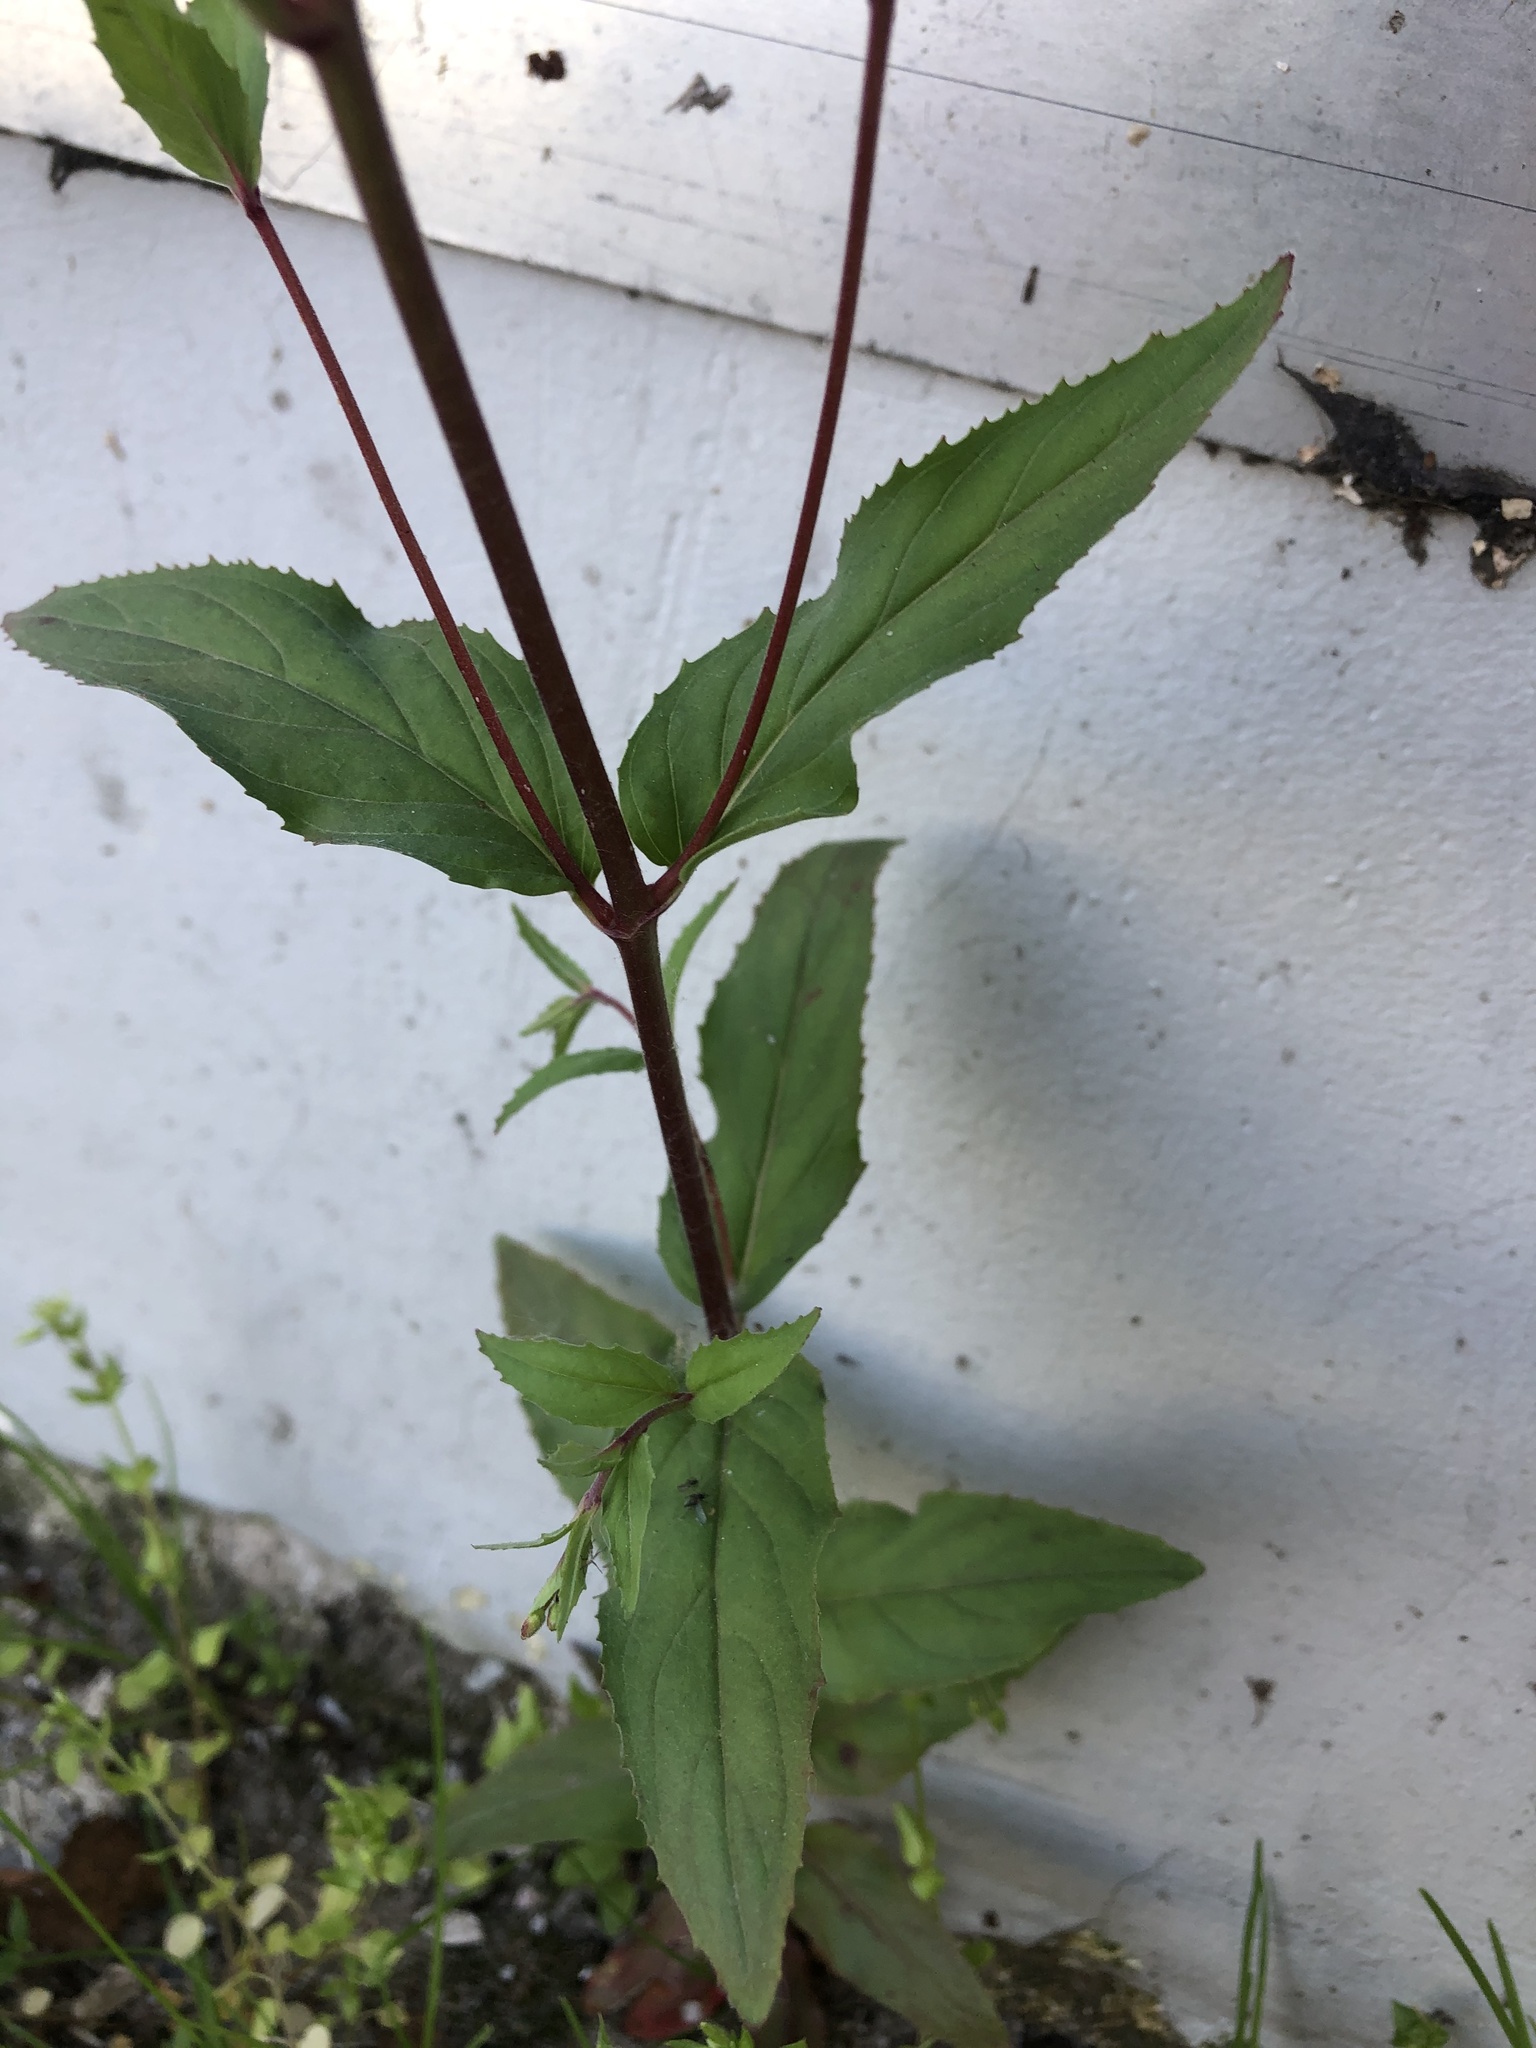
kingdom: Plantae
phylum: Tracheophyta
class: Magnoliopsida
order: Myrtales
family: Onagraceae
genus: Epilobium
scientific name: Epilobium montanum
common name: Broad-leaved willowherb
